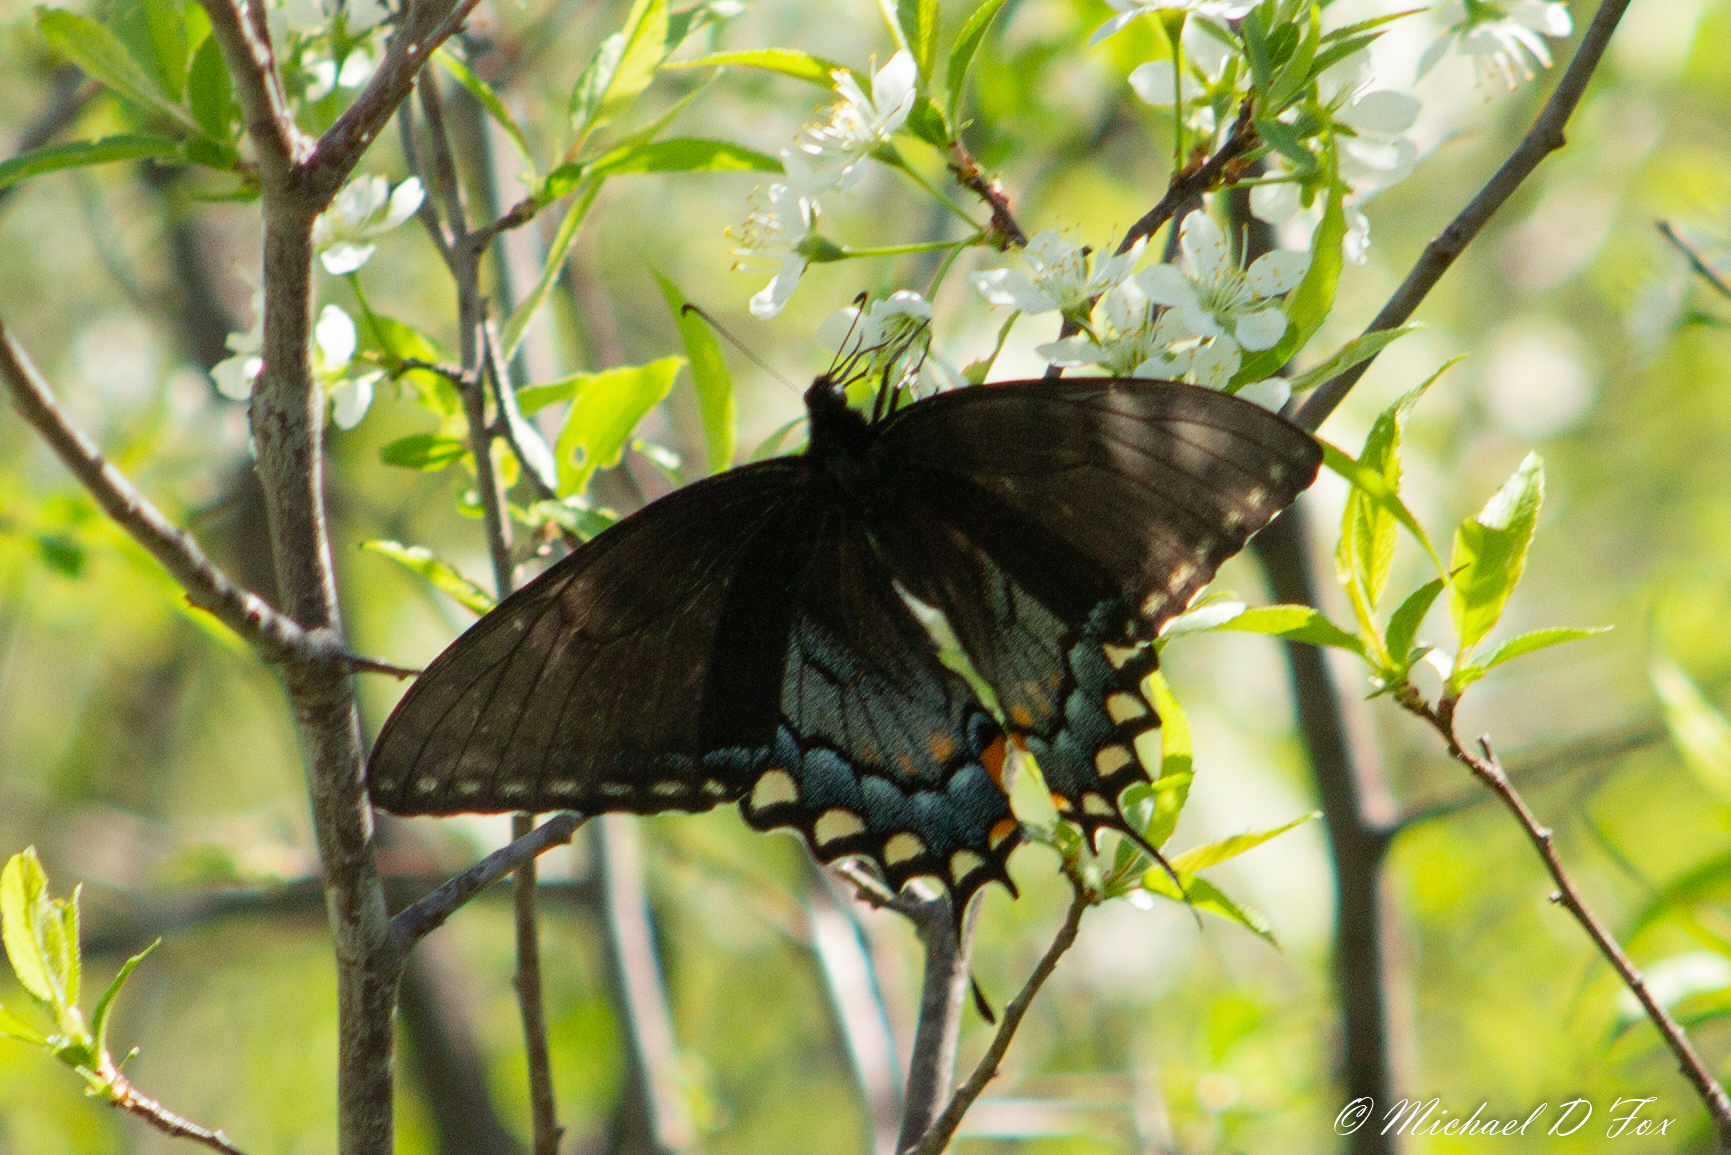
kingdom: Animalia
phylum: Arthropoda
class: Insecta
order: Lepidoptera
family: Papilionidae
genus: Papilio
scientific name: Papilio glaucus
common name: Tiger swallowtail
